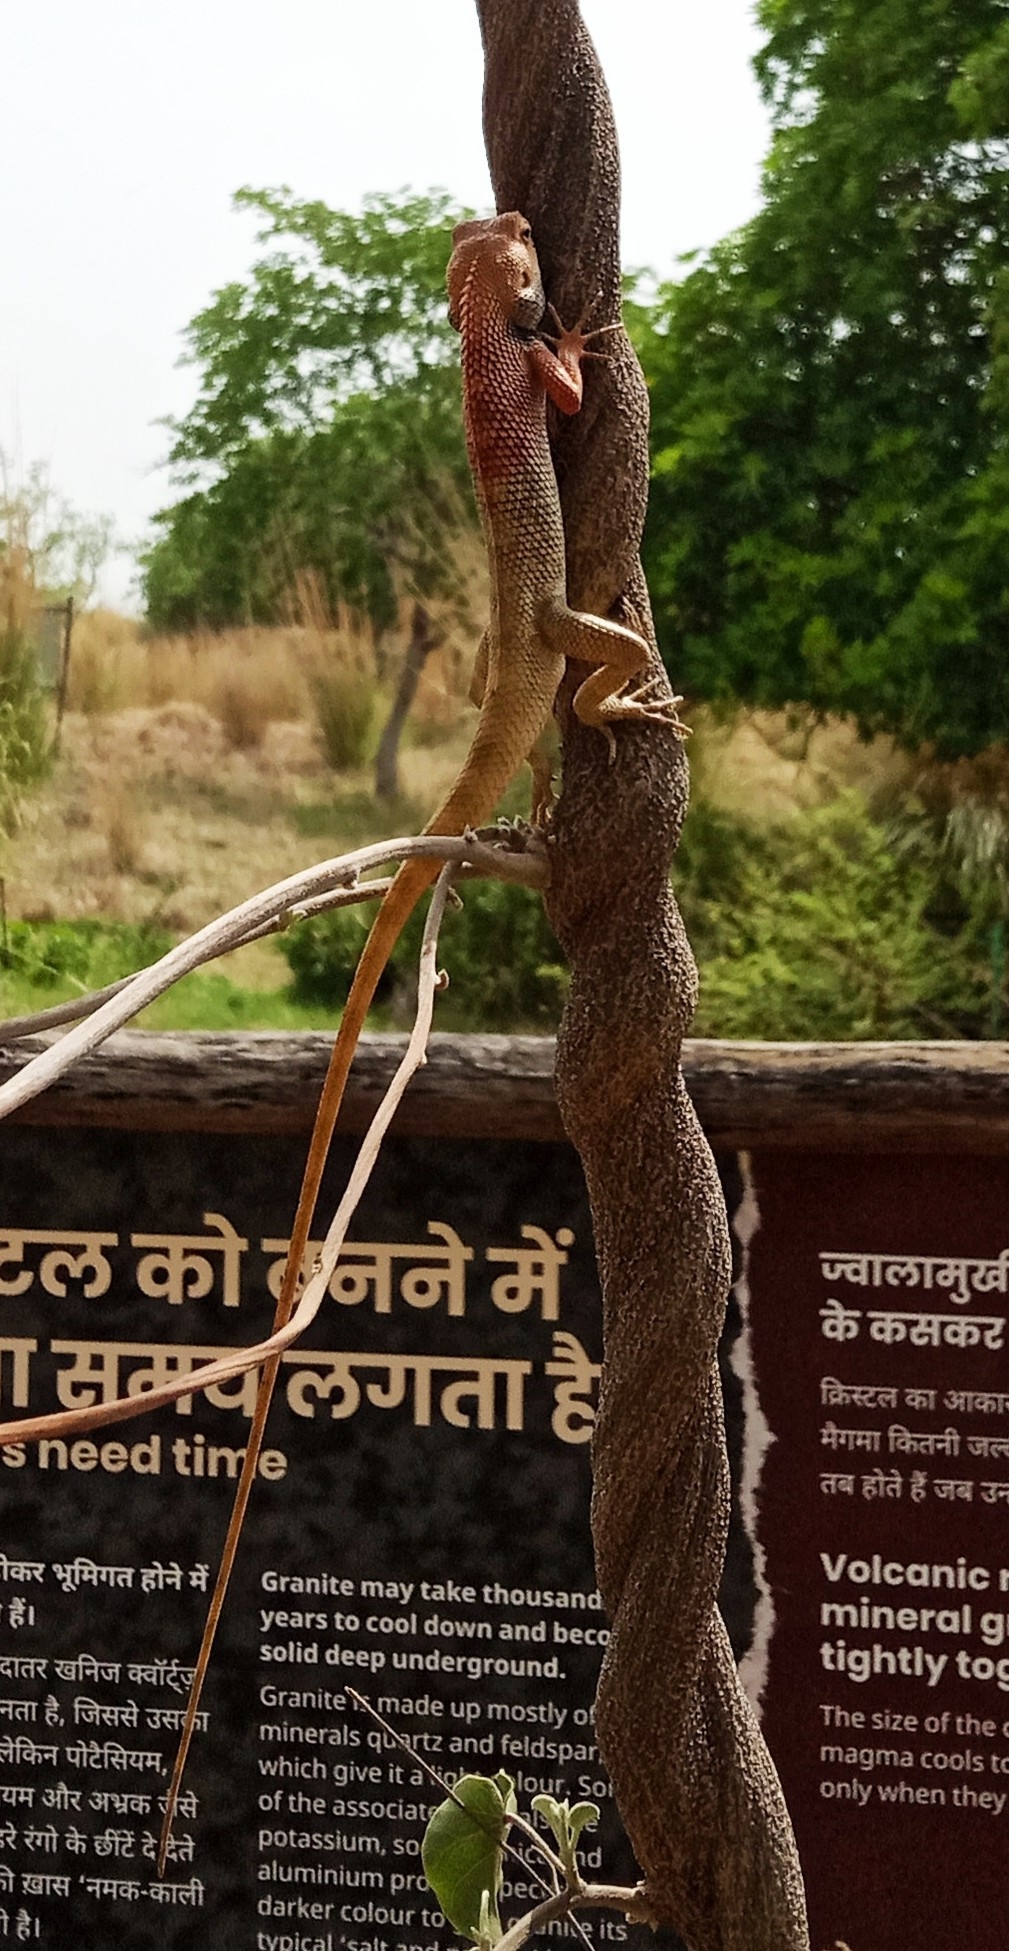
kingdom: Animalia
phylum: Chordata
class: Squamata
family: Agamidae
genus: Calotes
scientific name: Calotes versicolor
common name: Oriental garden lizard
